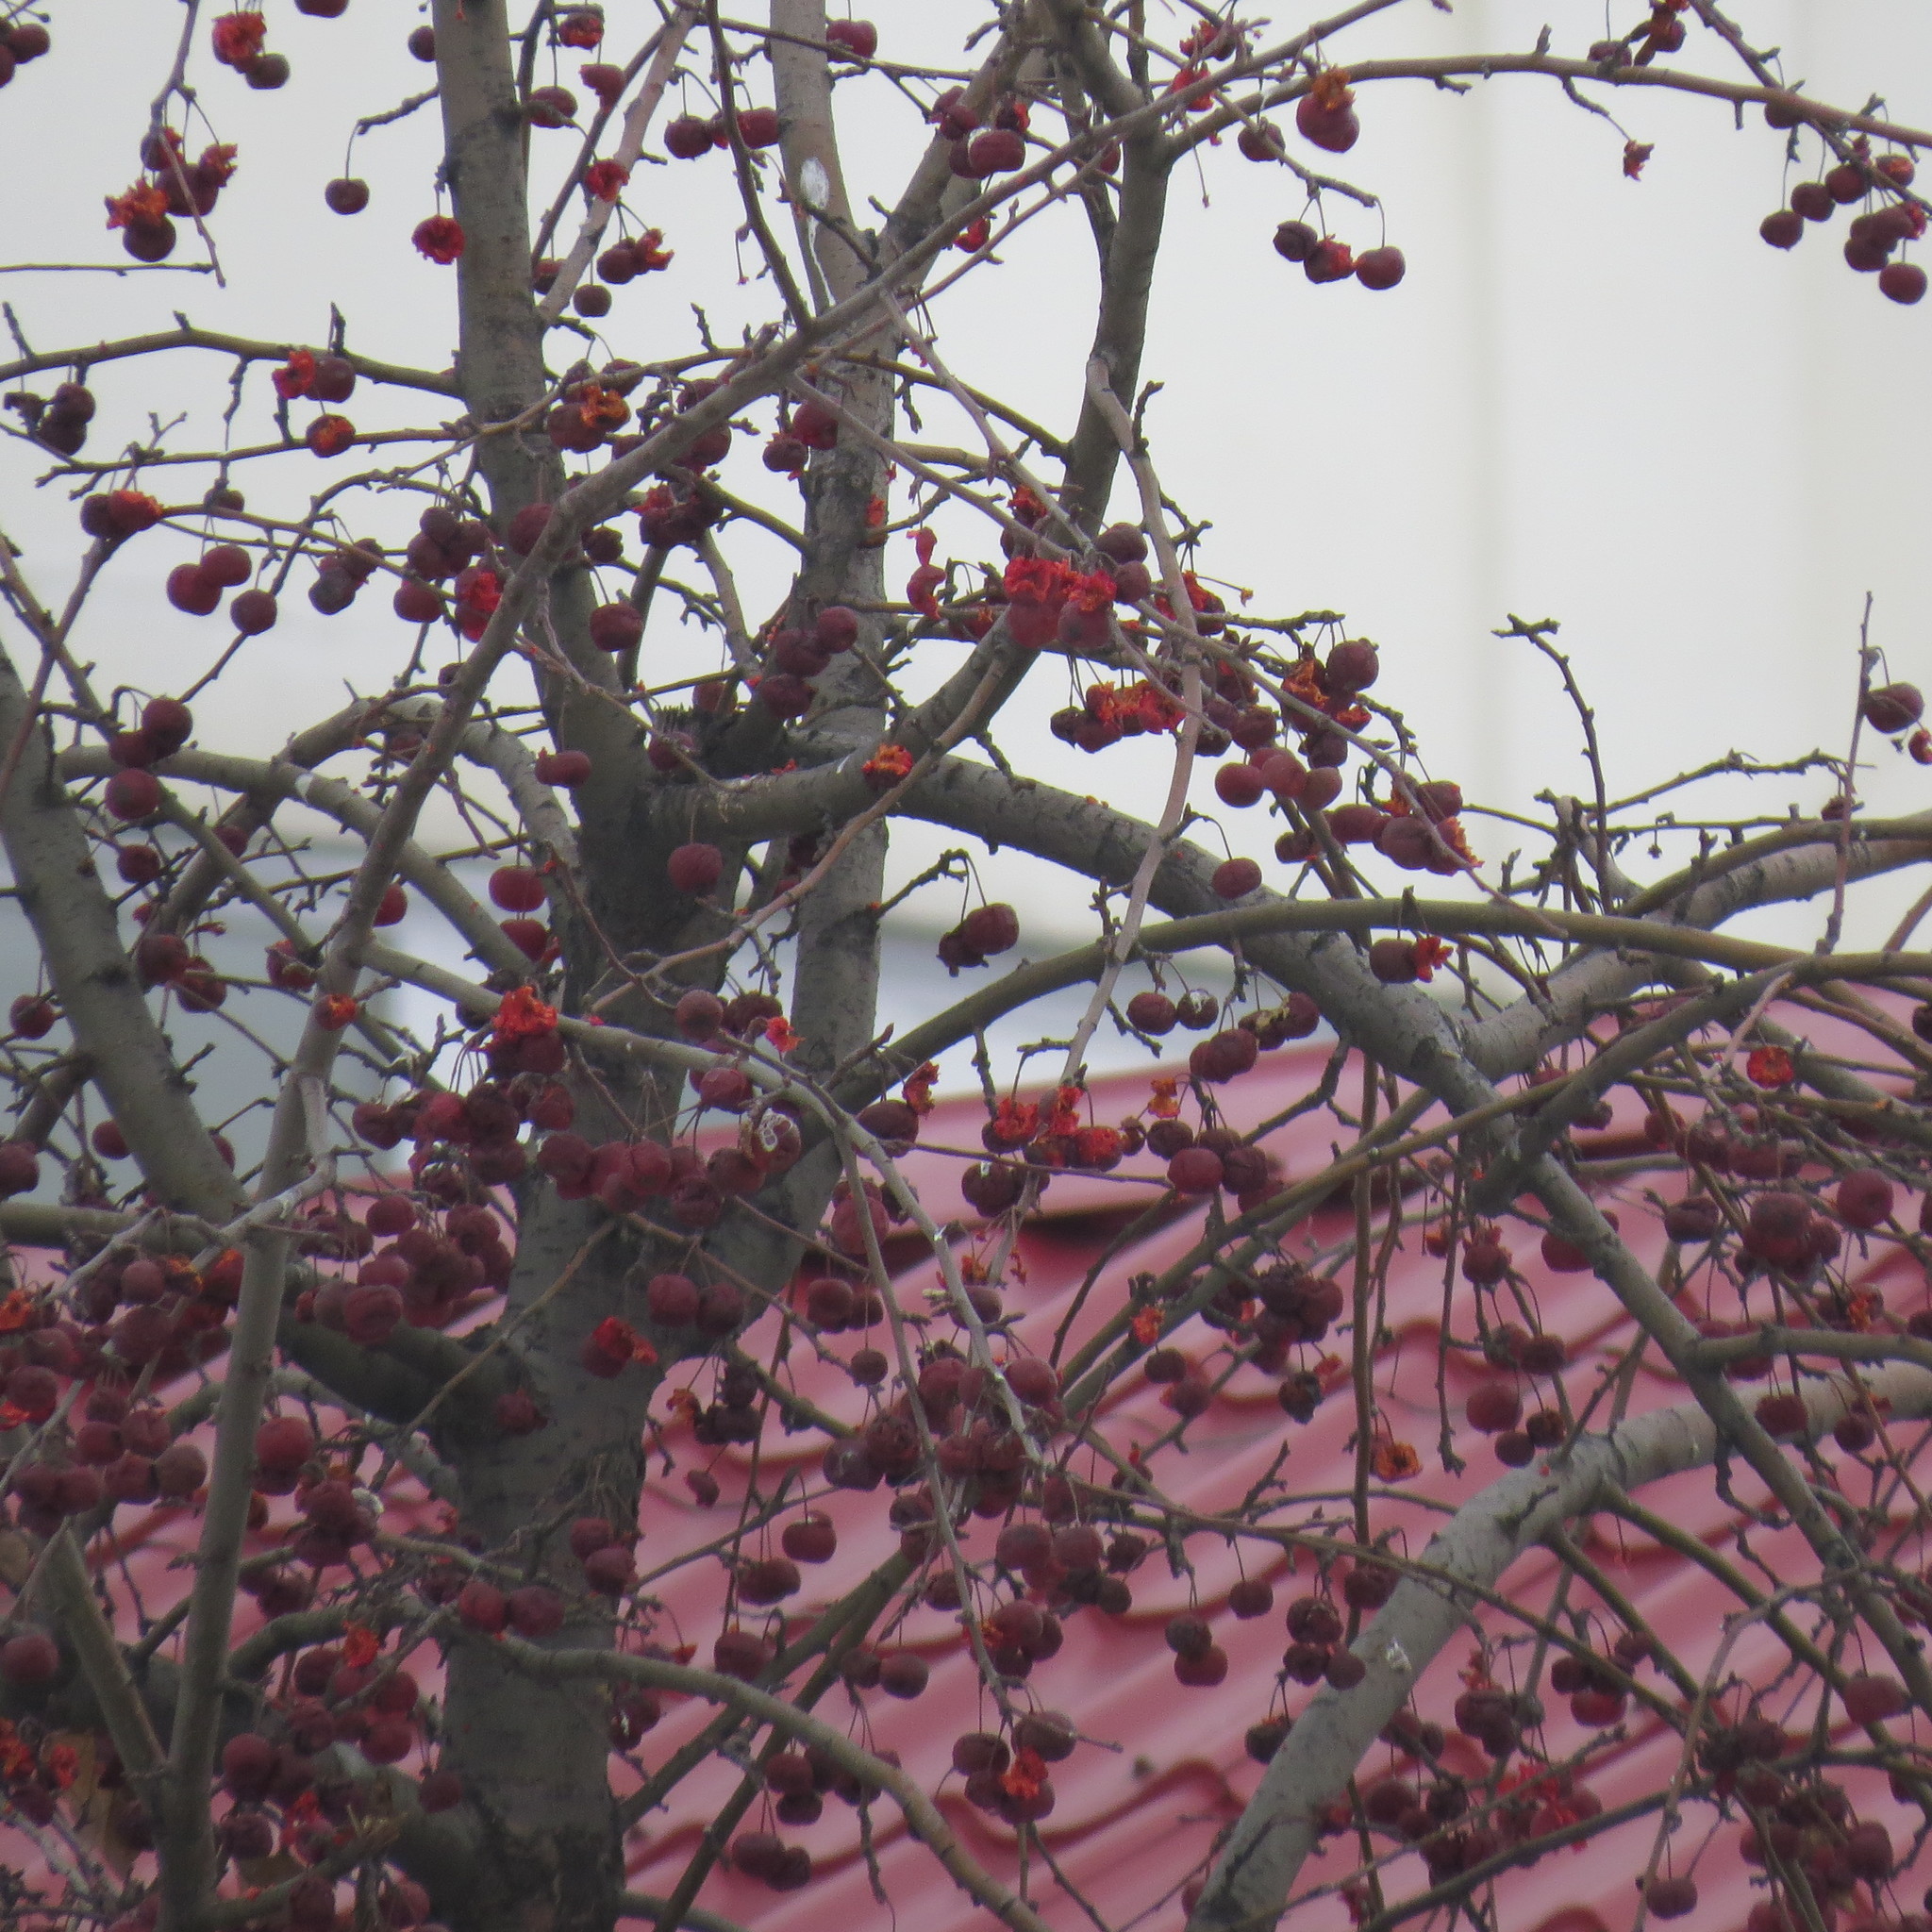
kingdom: Animalia
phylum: Chordata
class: Aves
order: Passeriformes
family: Fringillidae
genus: Pyrrhula
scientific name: Pyrrhula pyrrhula
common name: Eurasian bullfinch
